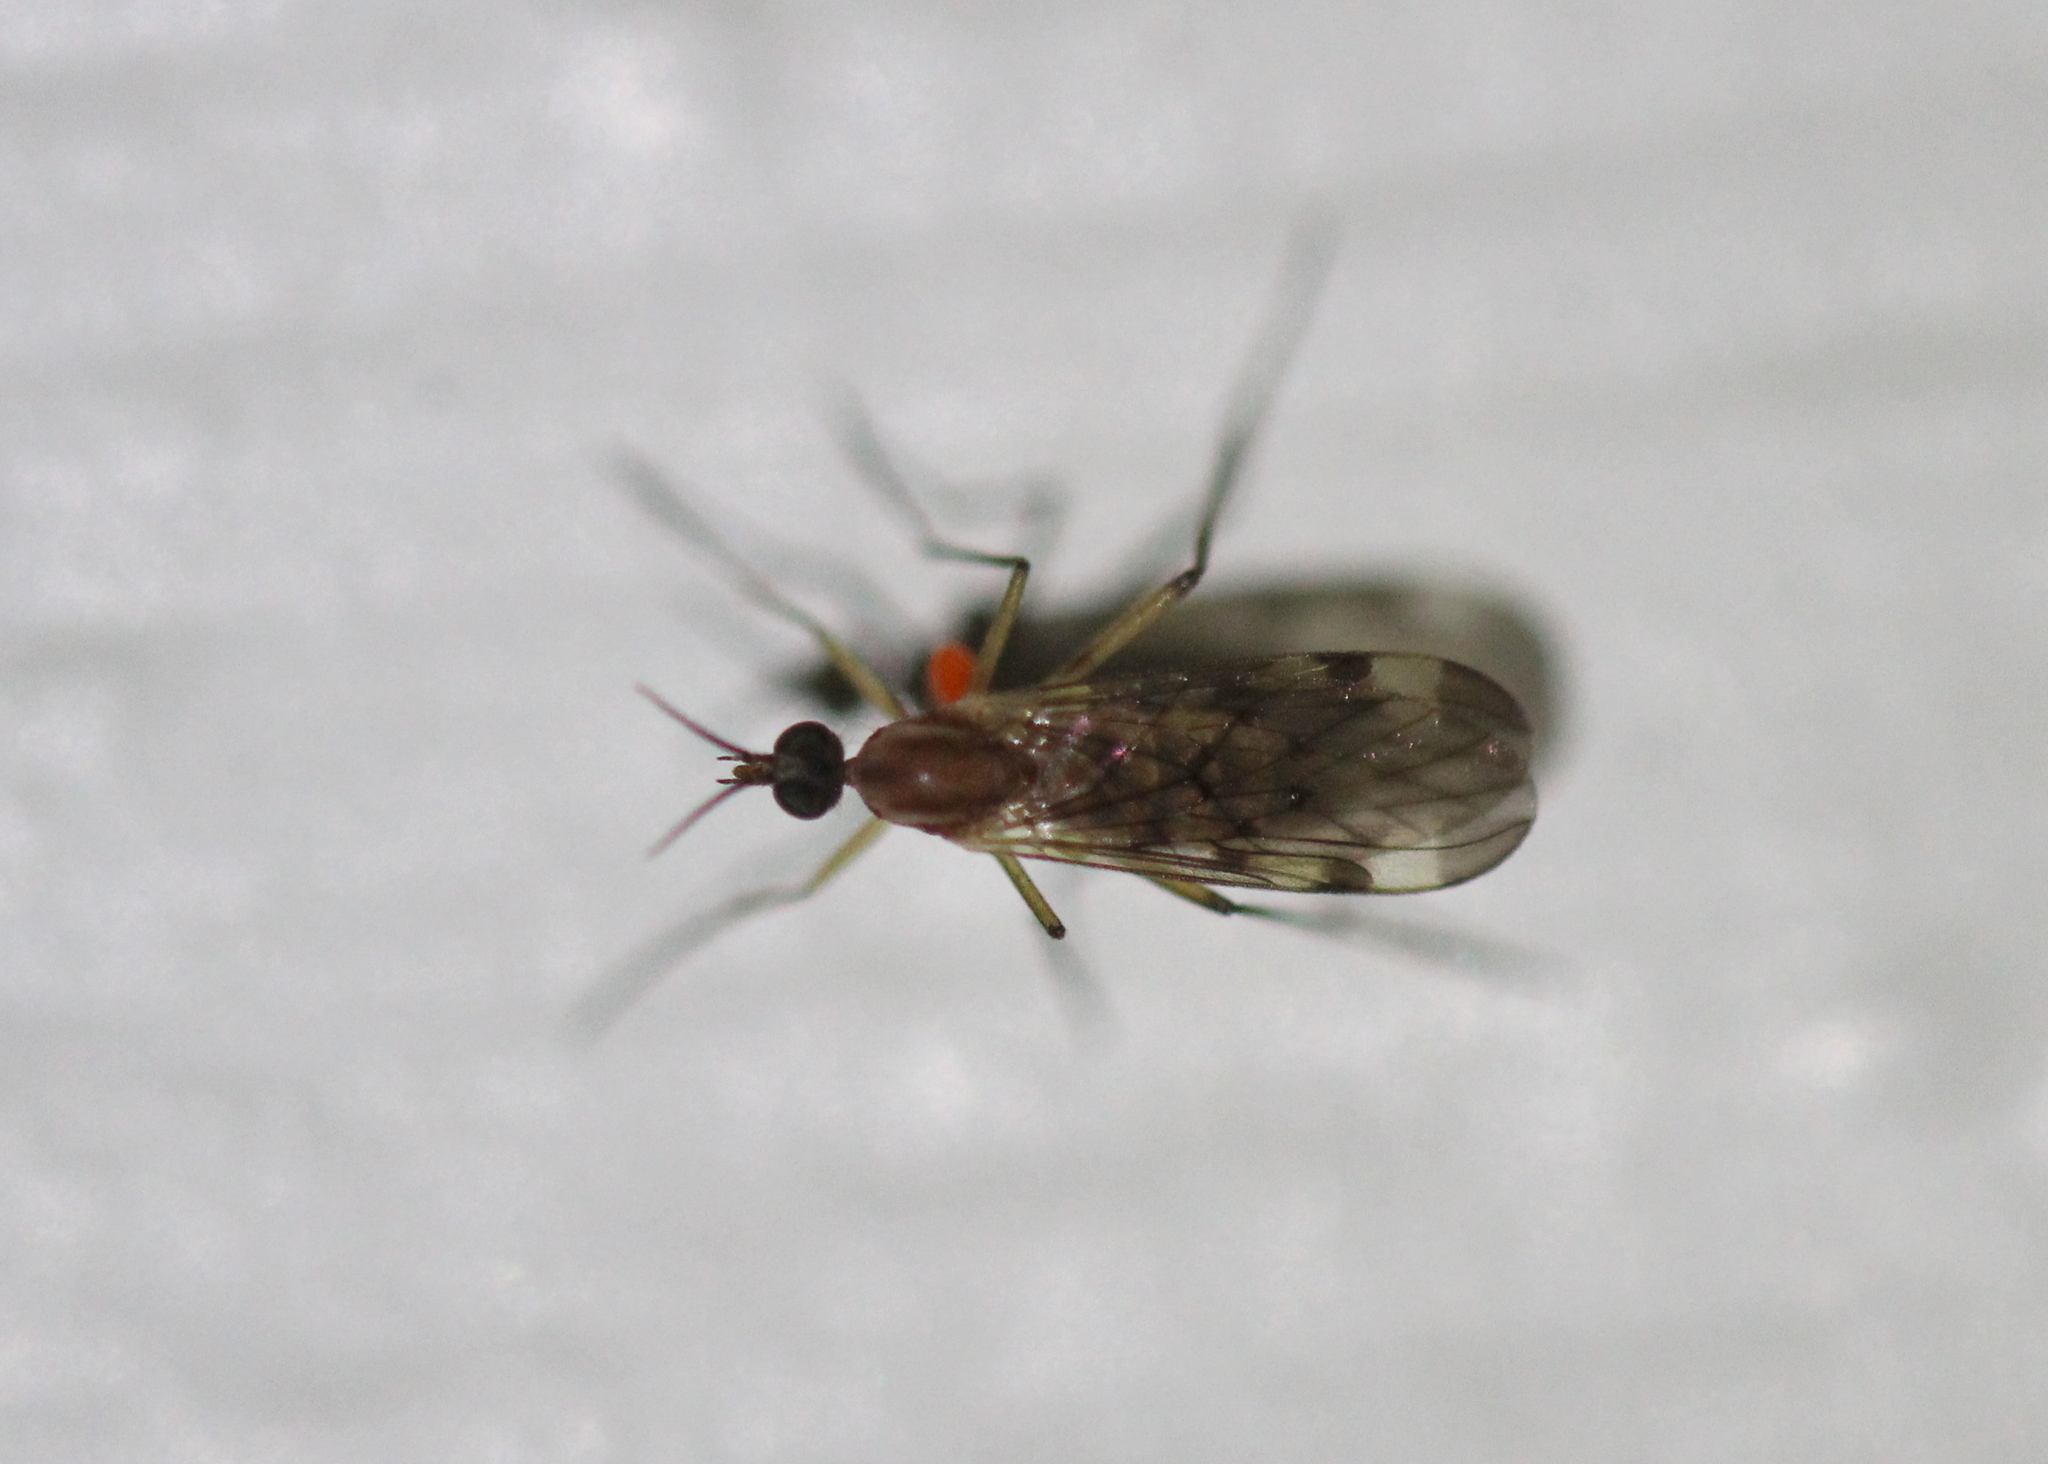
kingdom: Animalia
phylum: Arthropoda
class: Insecta
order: Diptera
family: Anisopodidae
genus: Sylvicola
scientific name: Sylvicola
